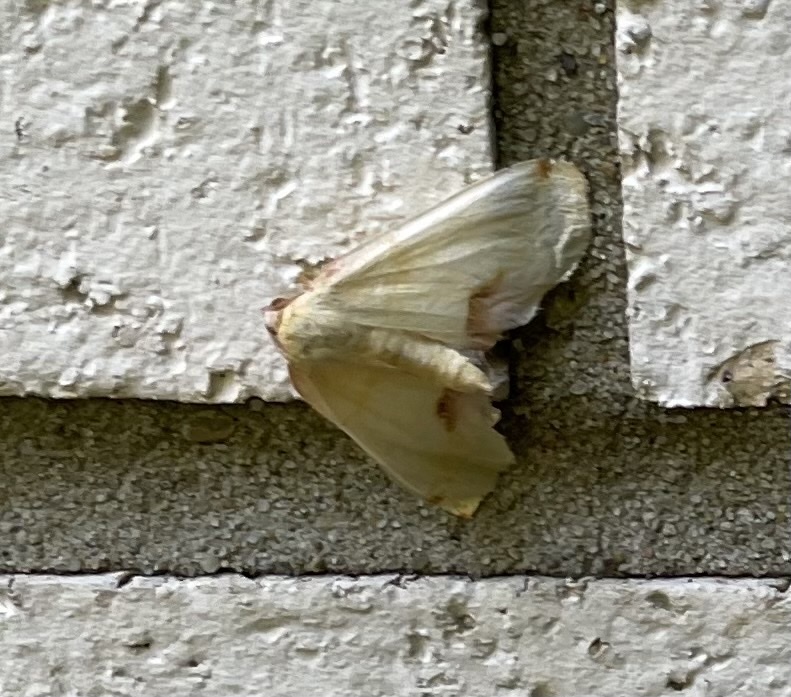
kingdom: Animalia
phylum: Arthropoda
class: Insecta
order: Lepidoptera
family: Geometridae
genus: Plagodis
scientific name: Plagodis serinaria
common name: Lemon plagodis
